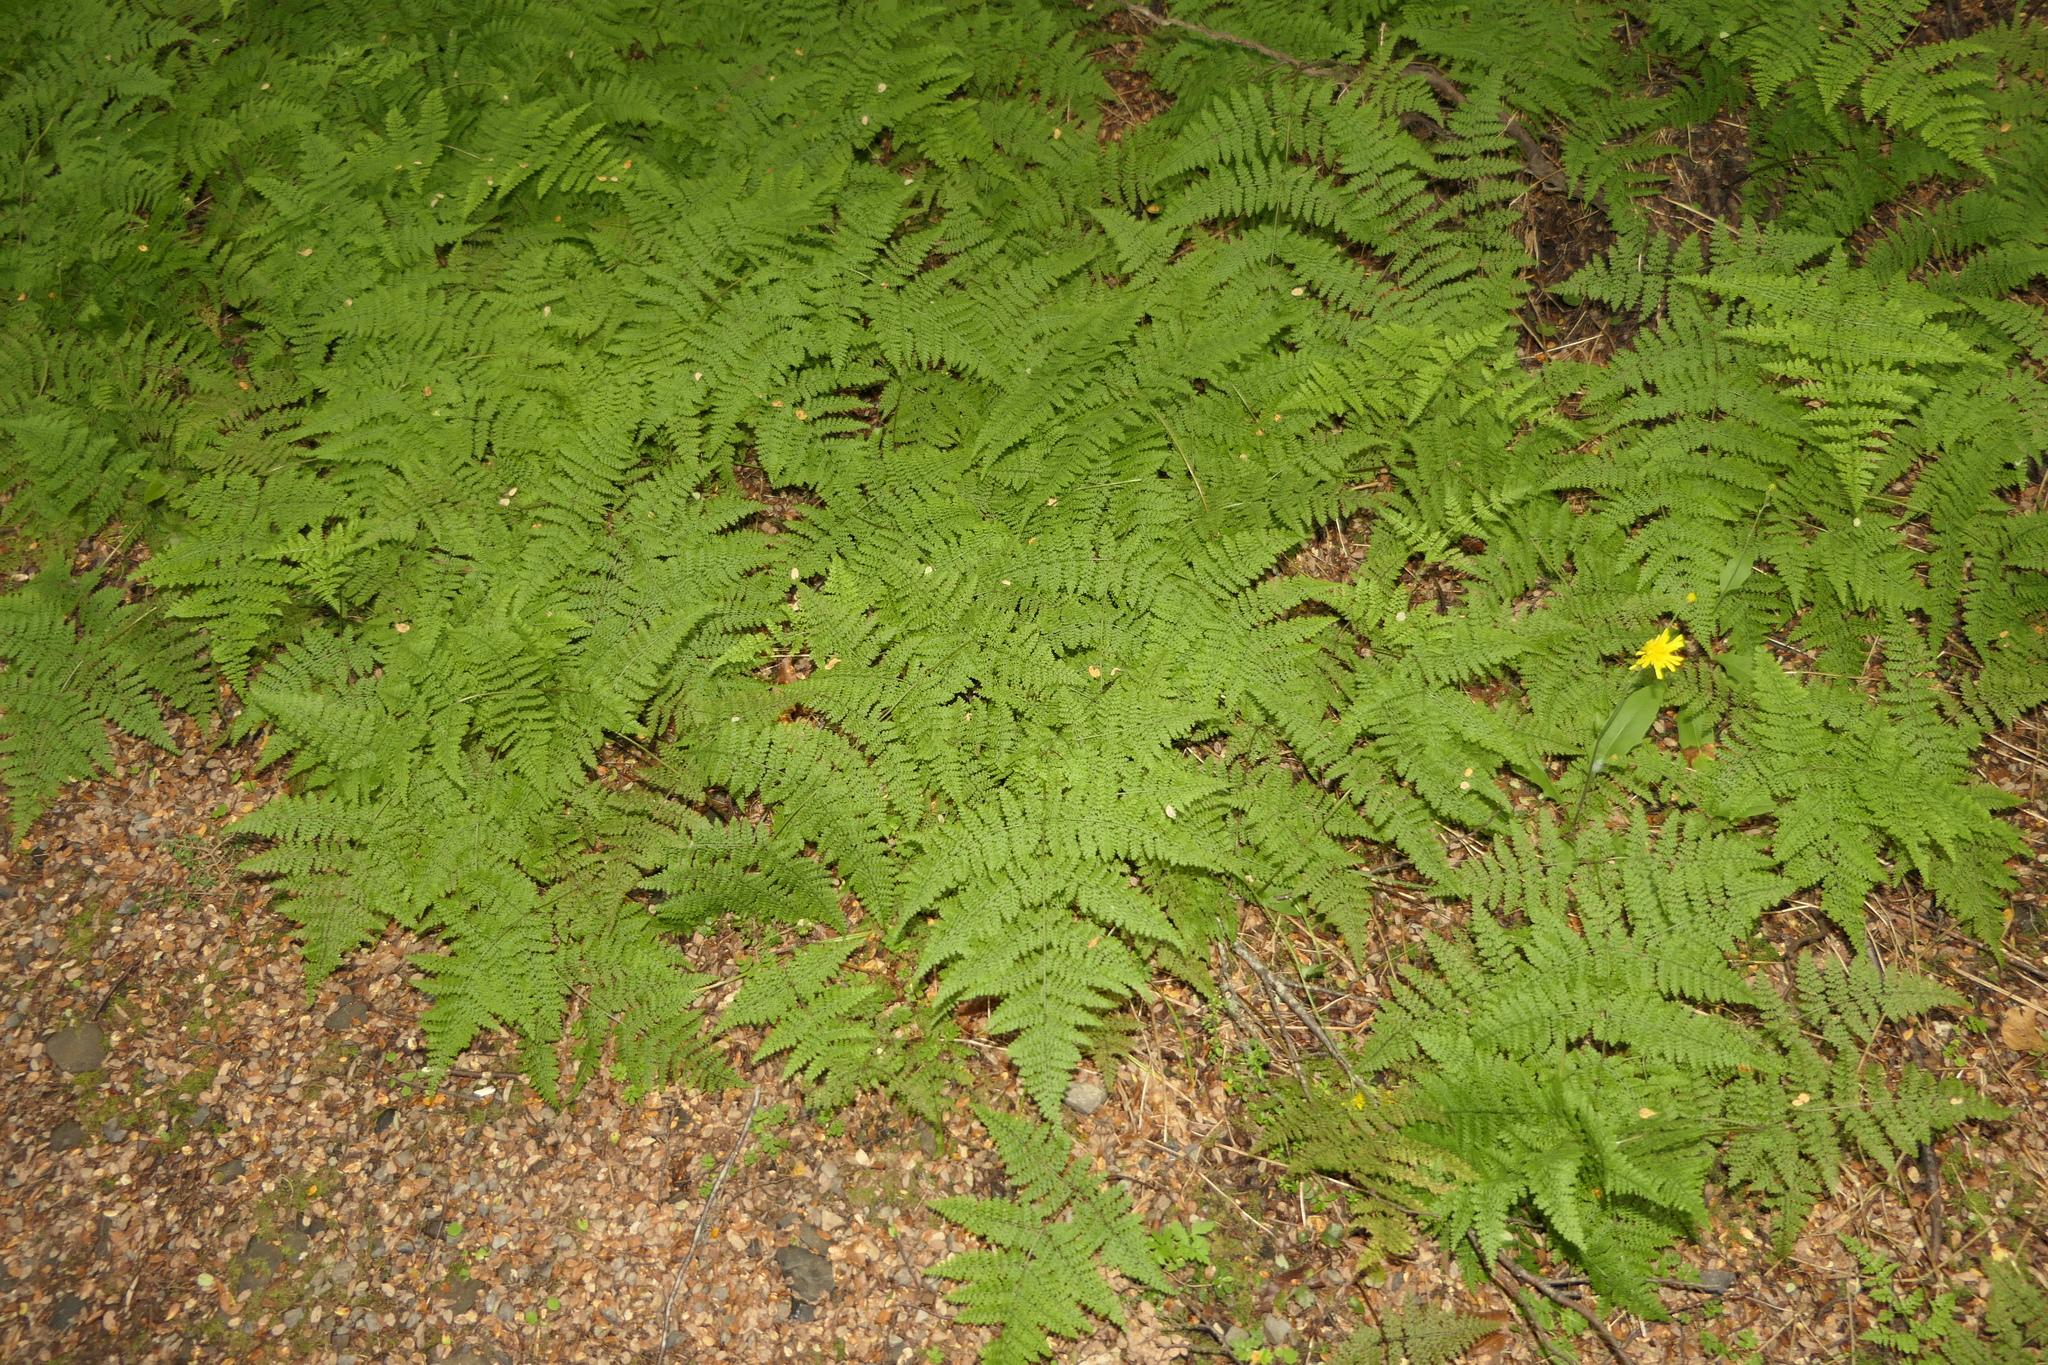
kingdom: Plantae
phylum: Tracheophyta
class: Polypodiopsida
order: Polypodiales
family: Dennstaedtiaceae
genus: Hypolepis
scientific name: Hypolepis millefolium
